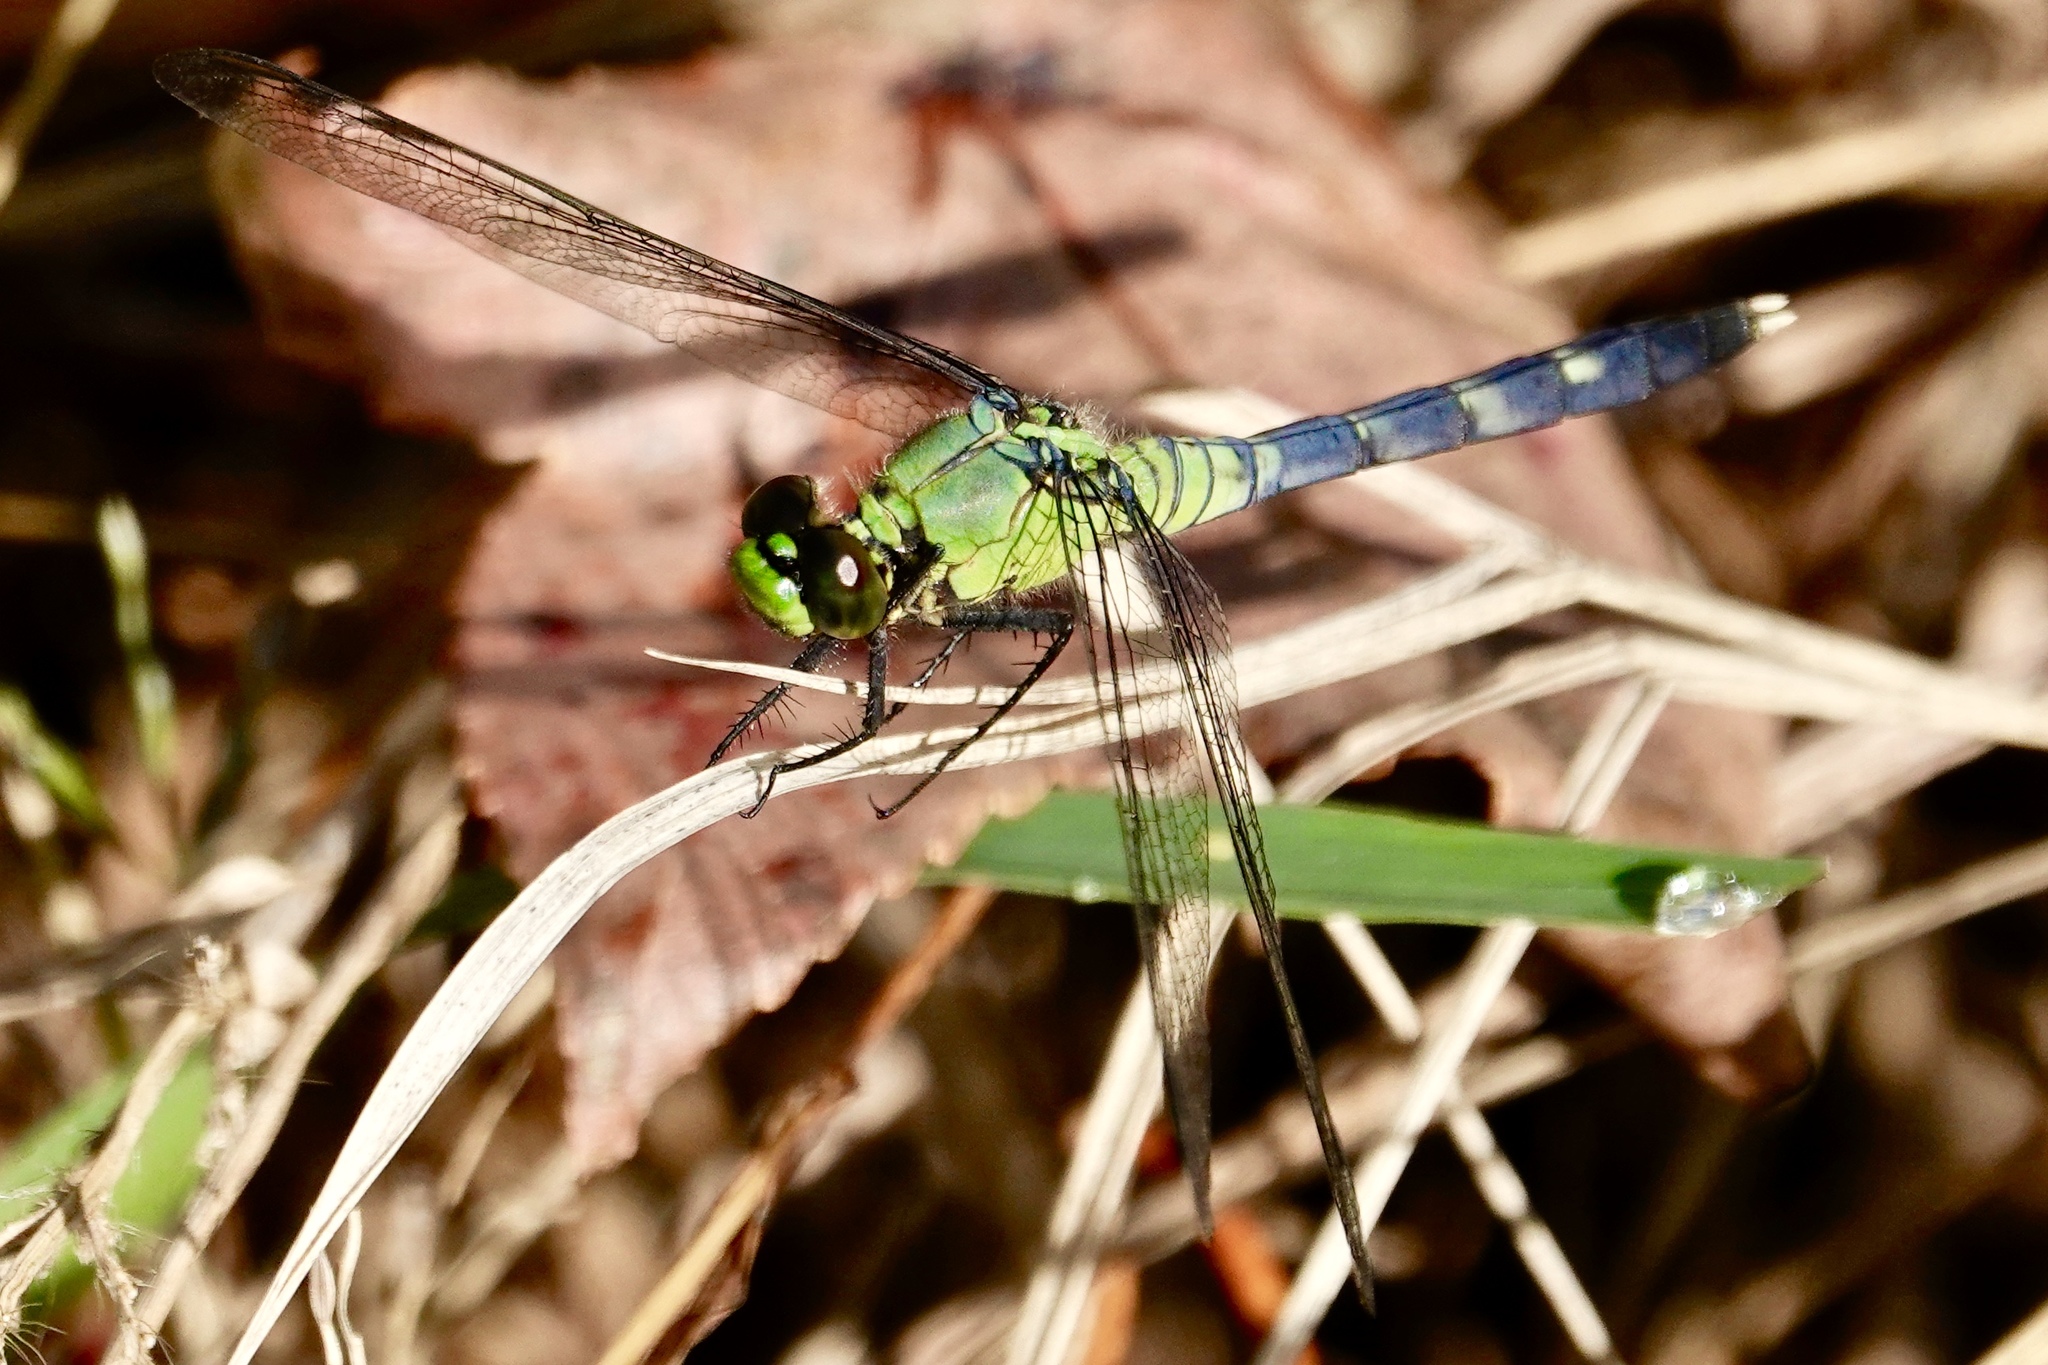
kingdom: Animalia
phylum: Arthropoda
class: Insecta
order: Odonata
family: Libellulidae
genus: Erythemis
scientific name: Erythemis simplicicollis
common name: Eastern pondhawk
